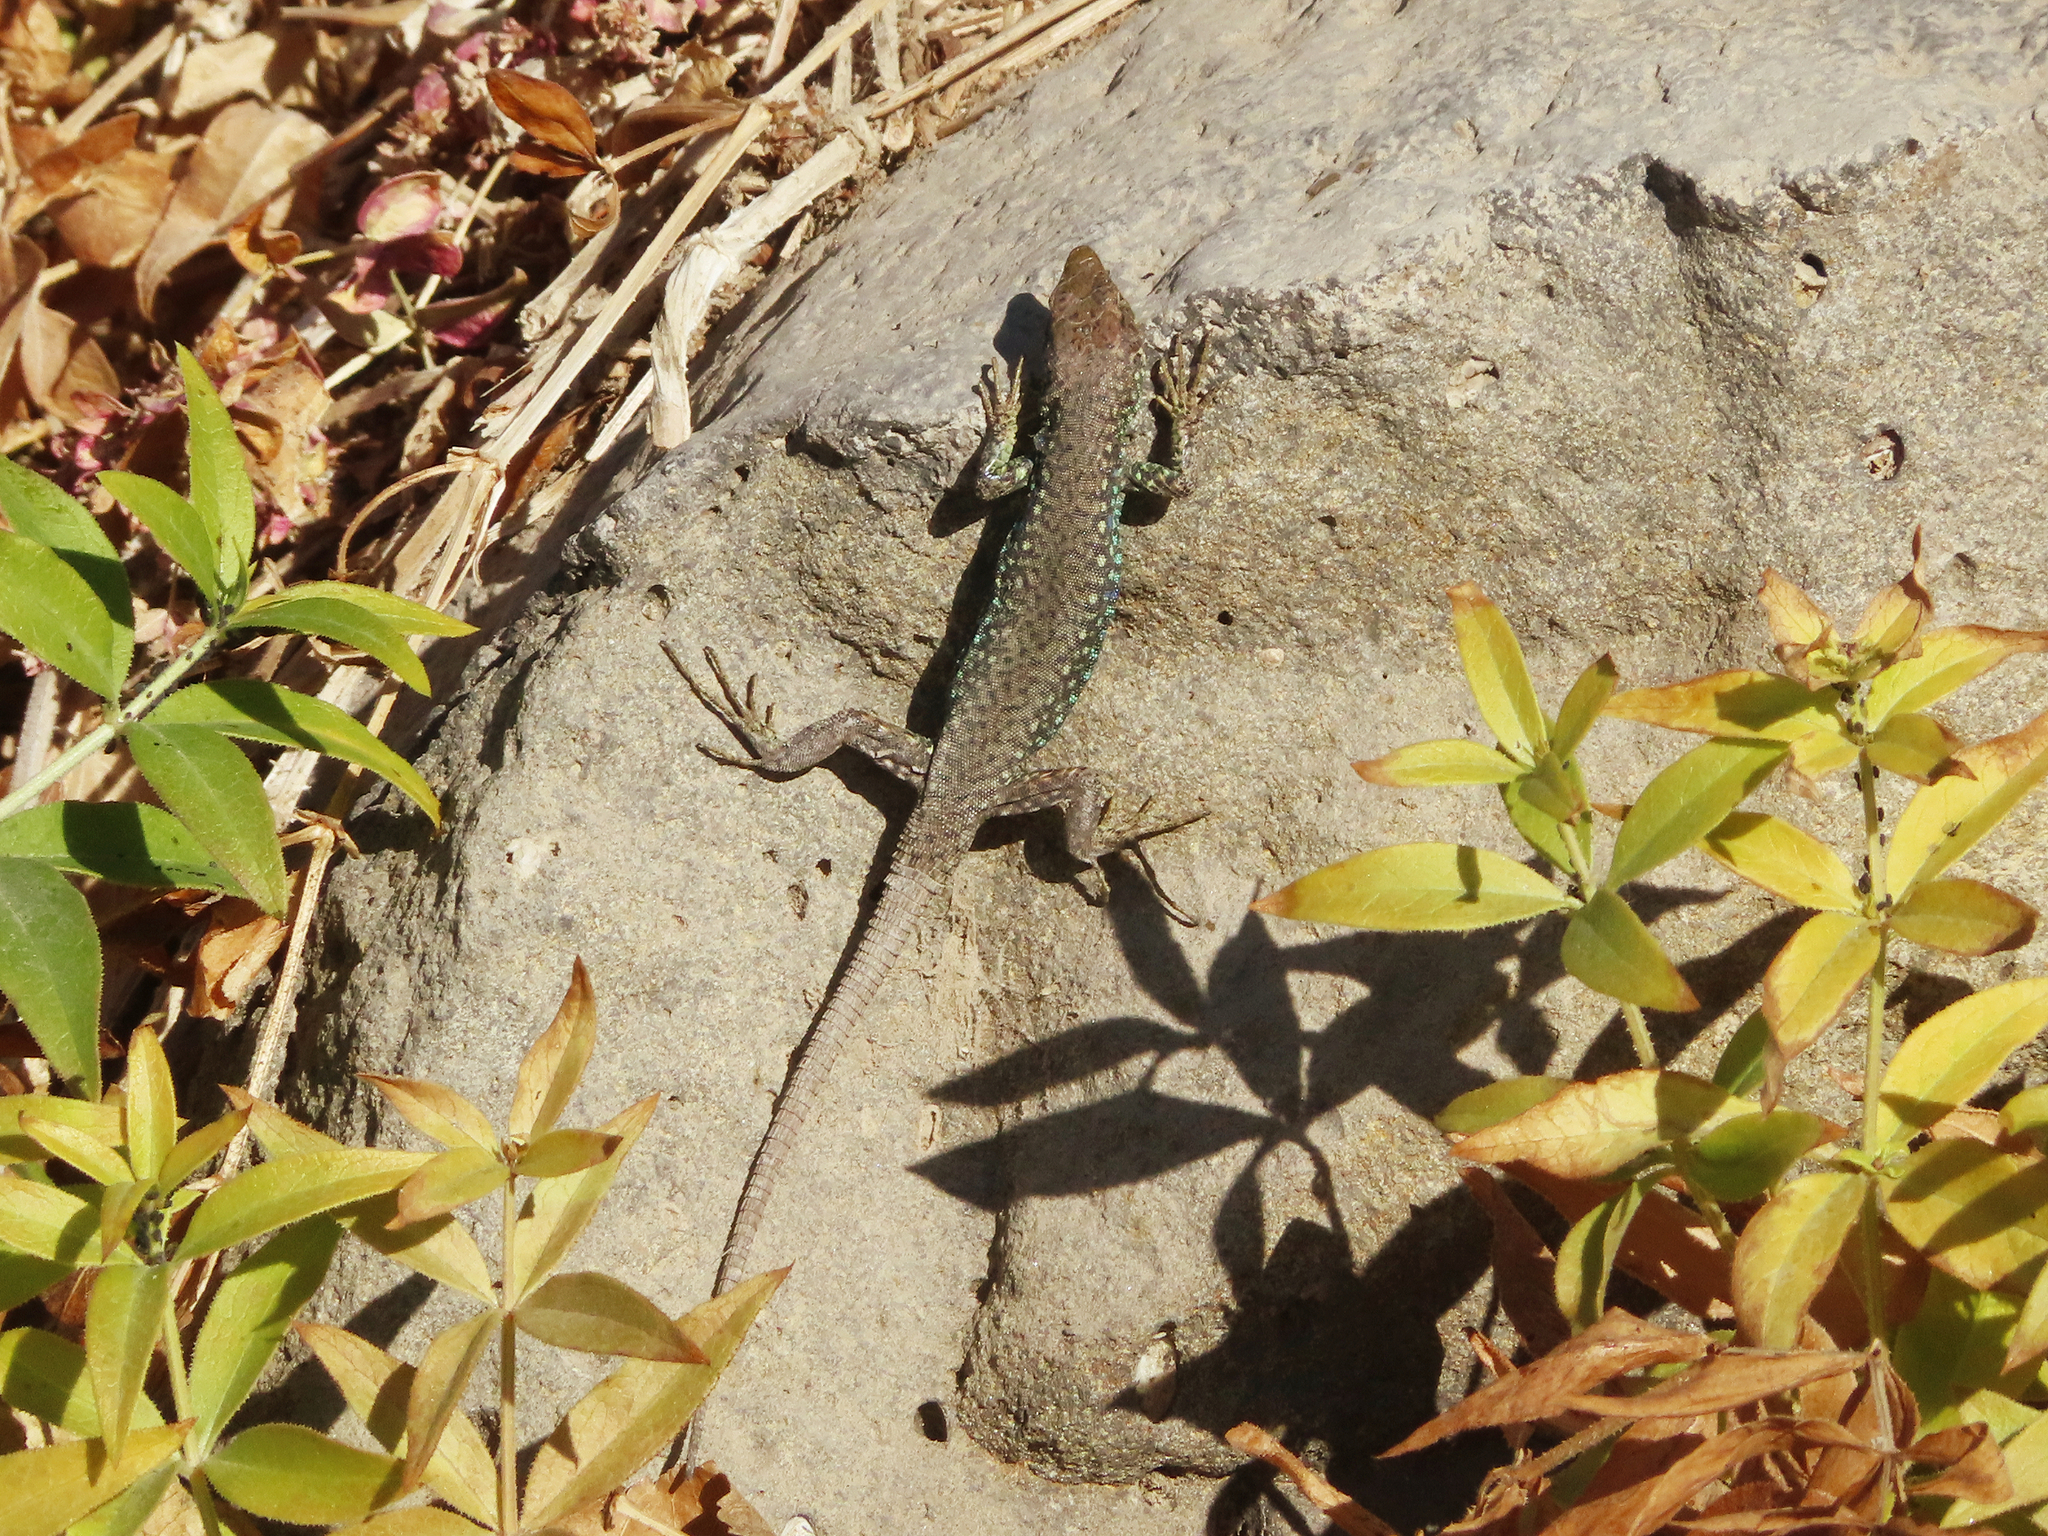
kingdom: Animalia
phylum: Chordata
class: Squamata
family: Lacertidae
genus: Darevskia
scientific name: Darevskia
